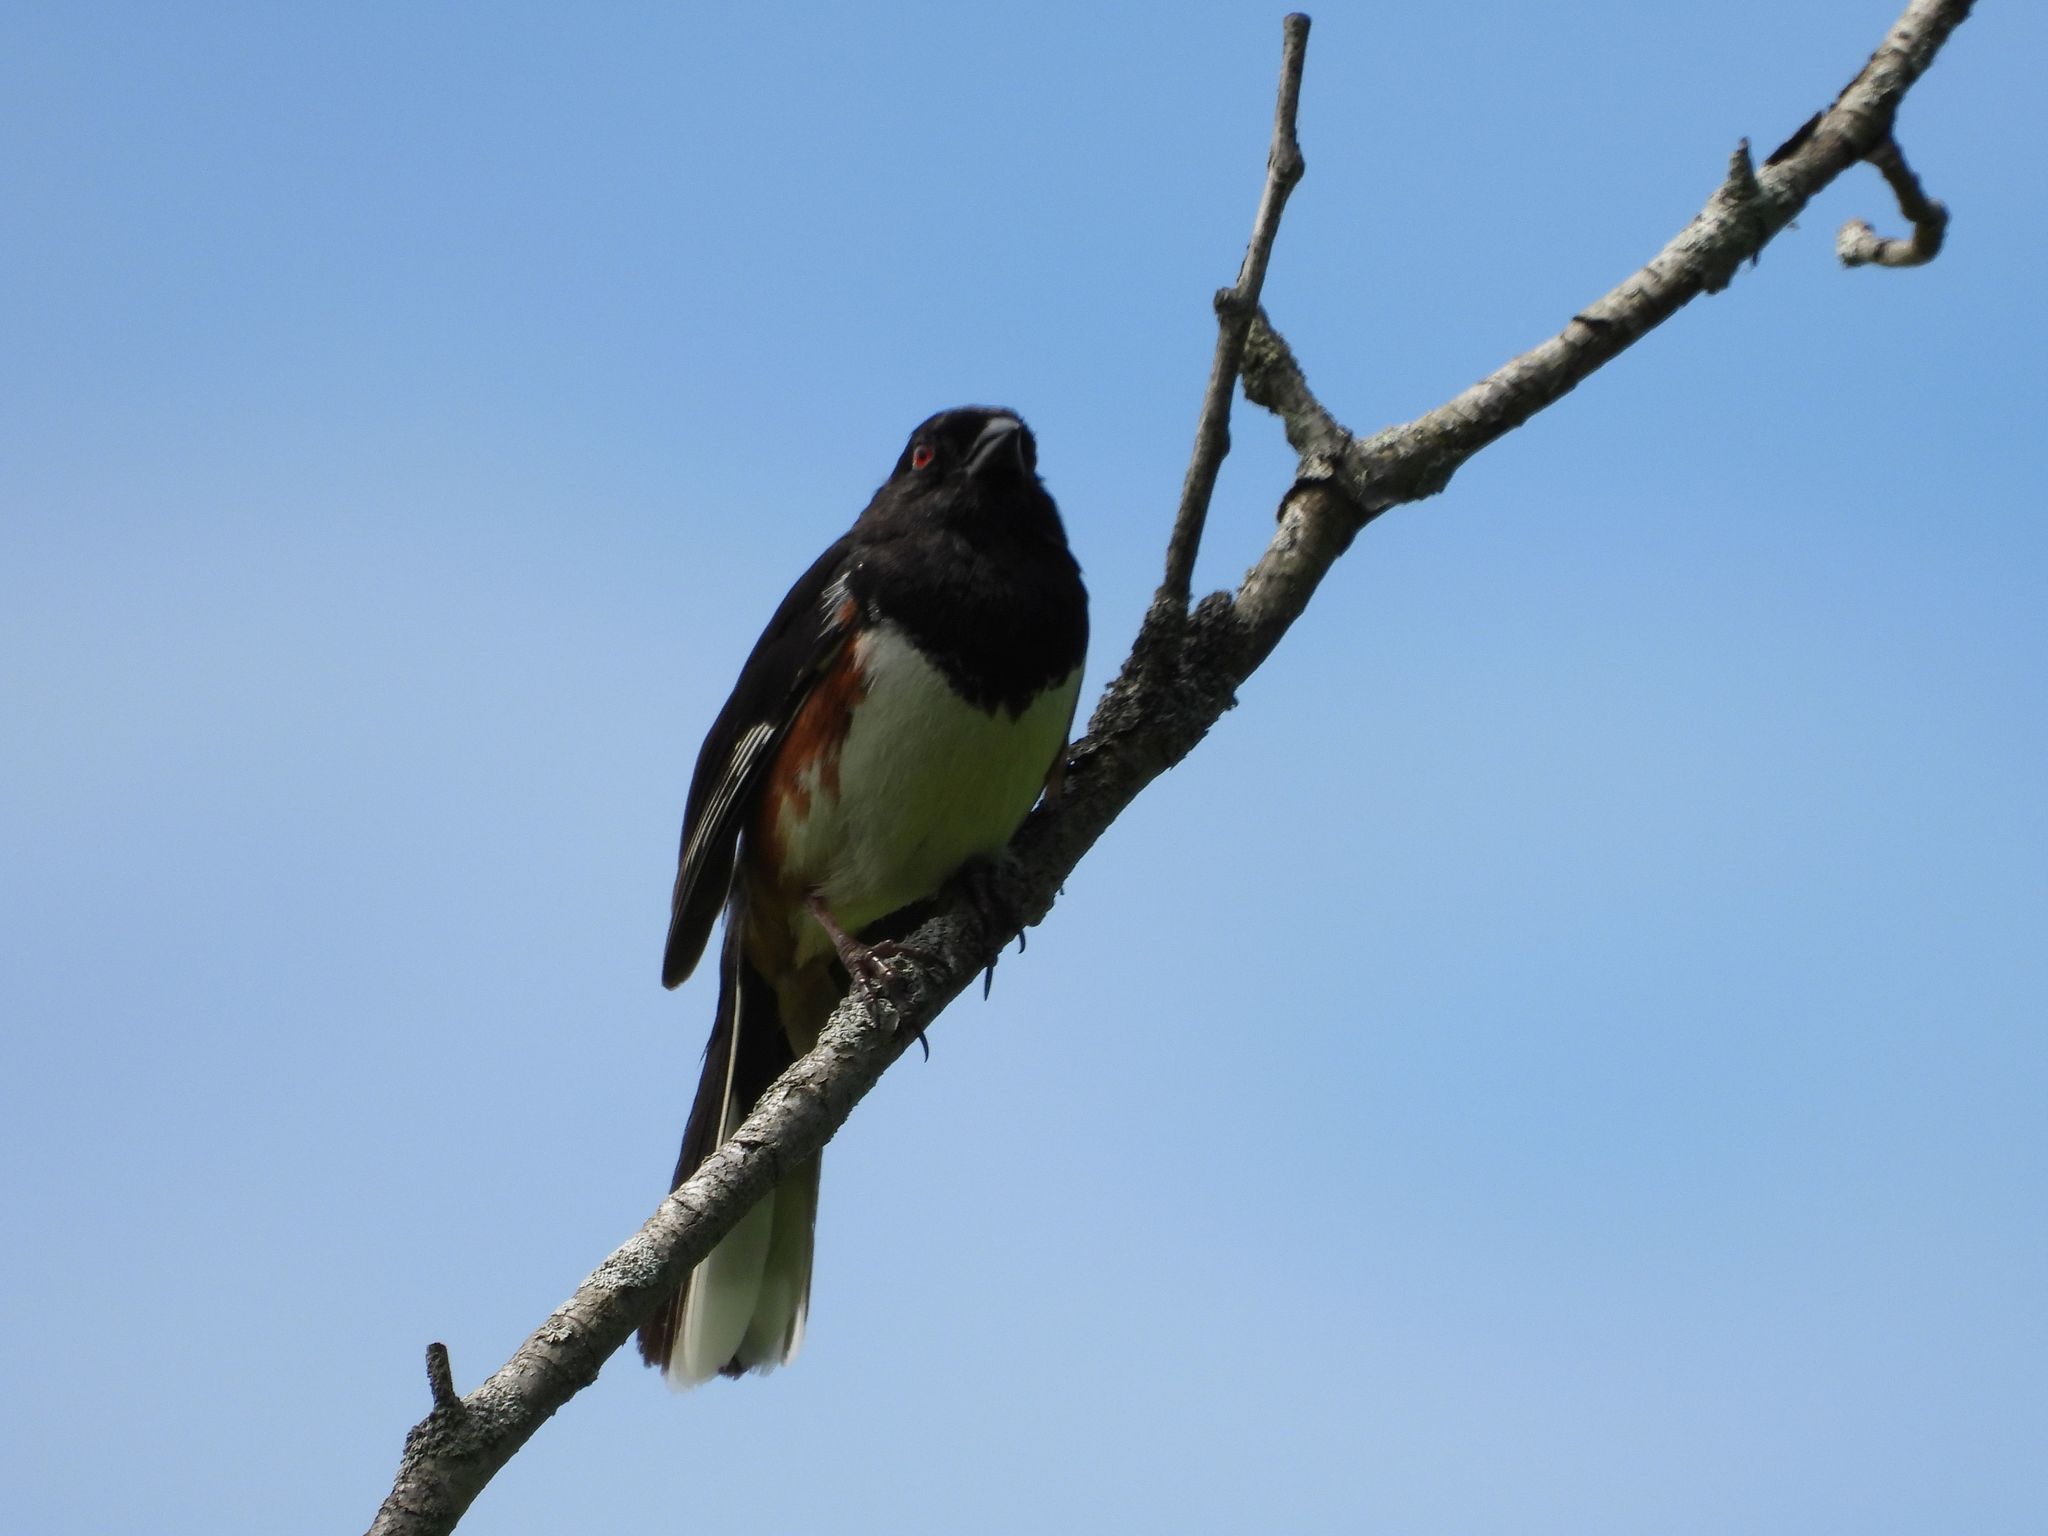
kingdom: Animalia
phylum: Chordata
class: Aves
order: Passeriformes
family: Passerellidae
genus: Pipilo
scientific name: Pipilo erythrophthalmus
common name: Eastern towhee
